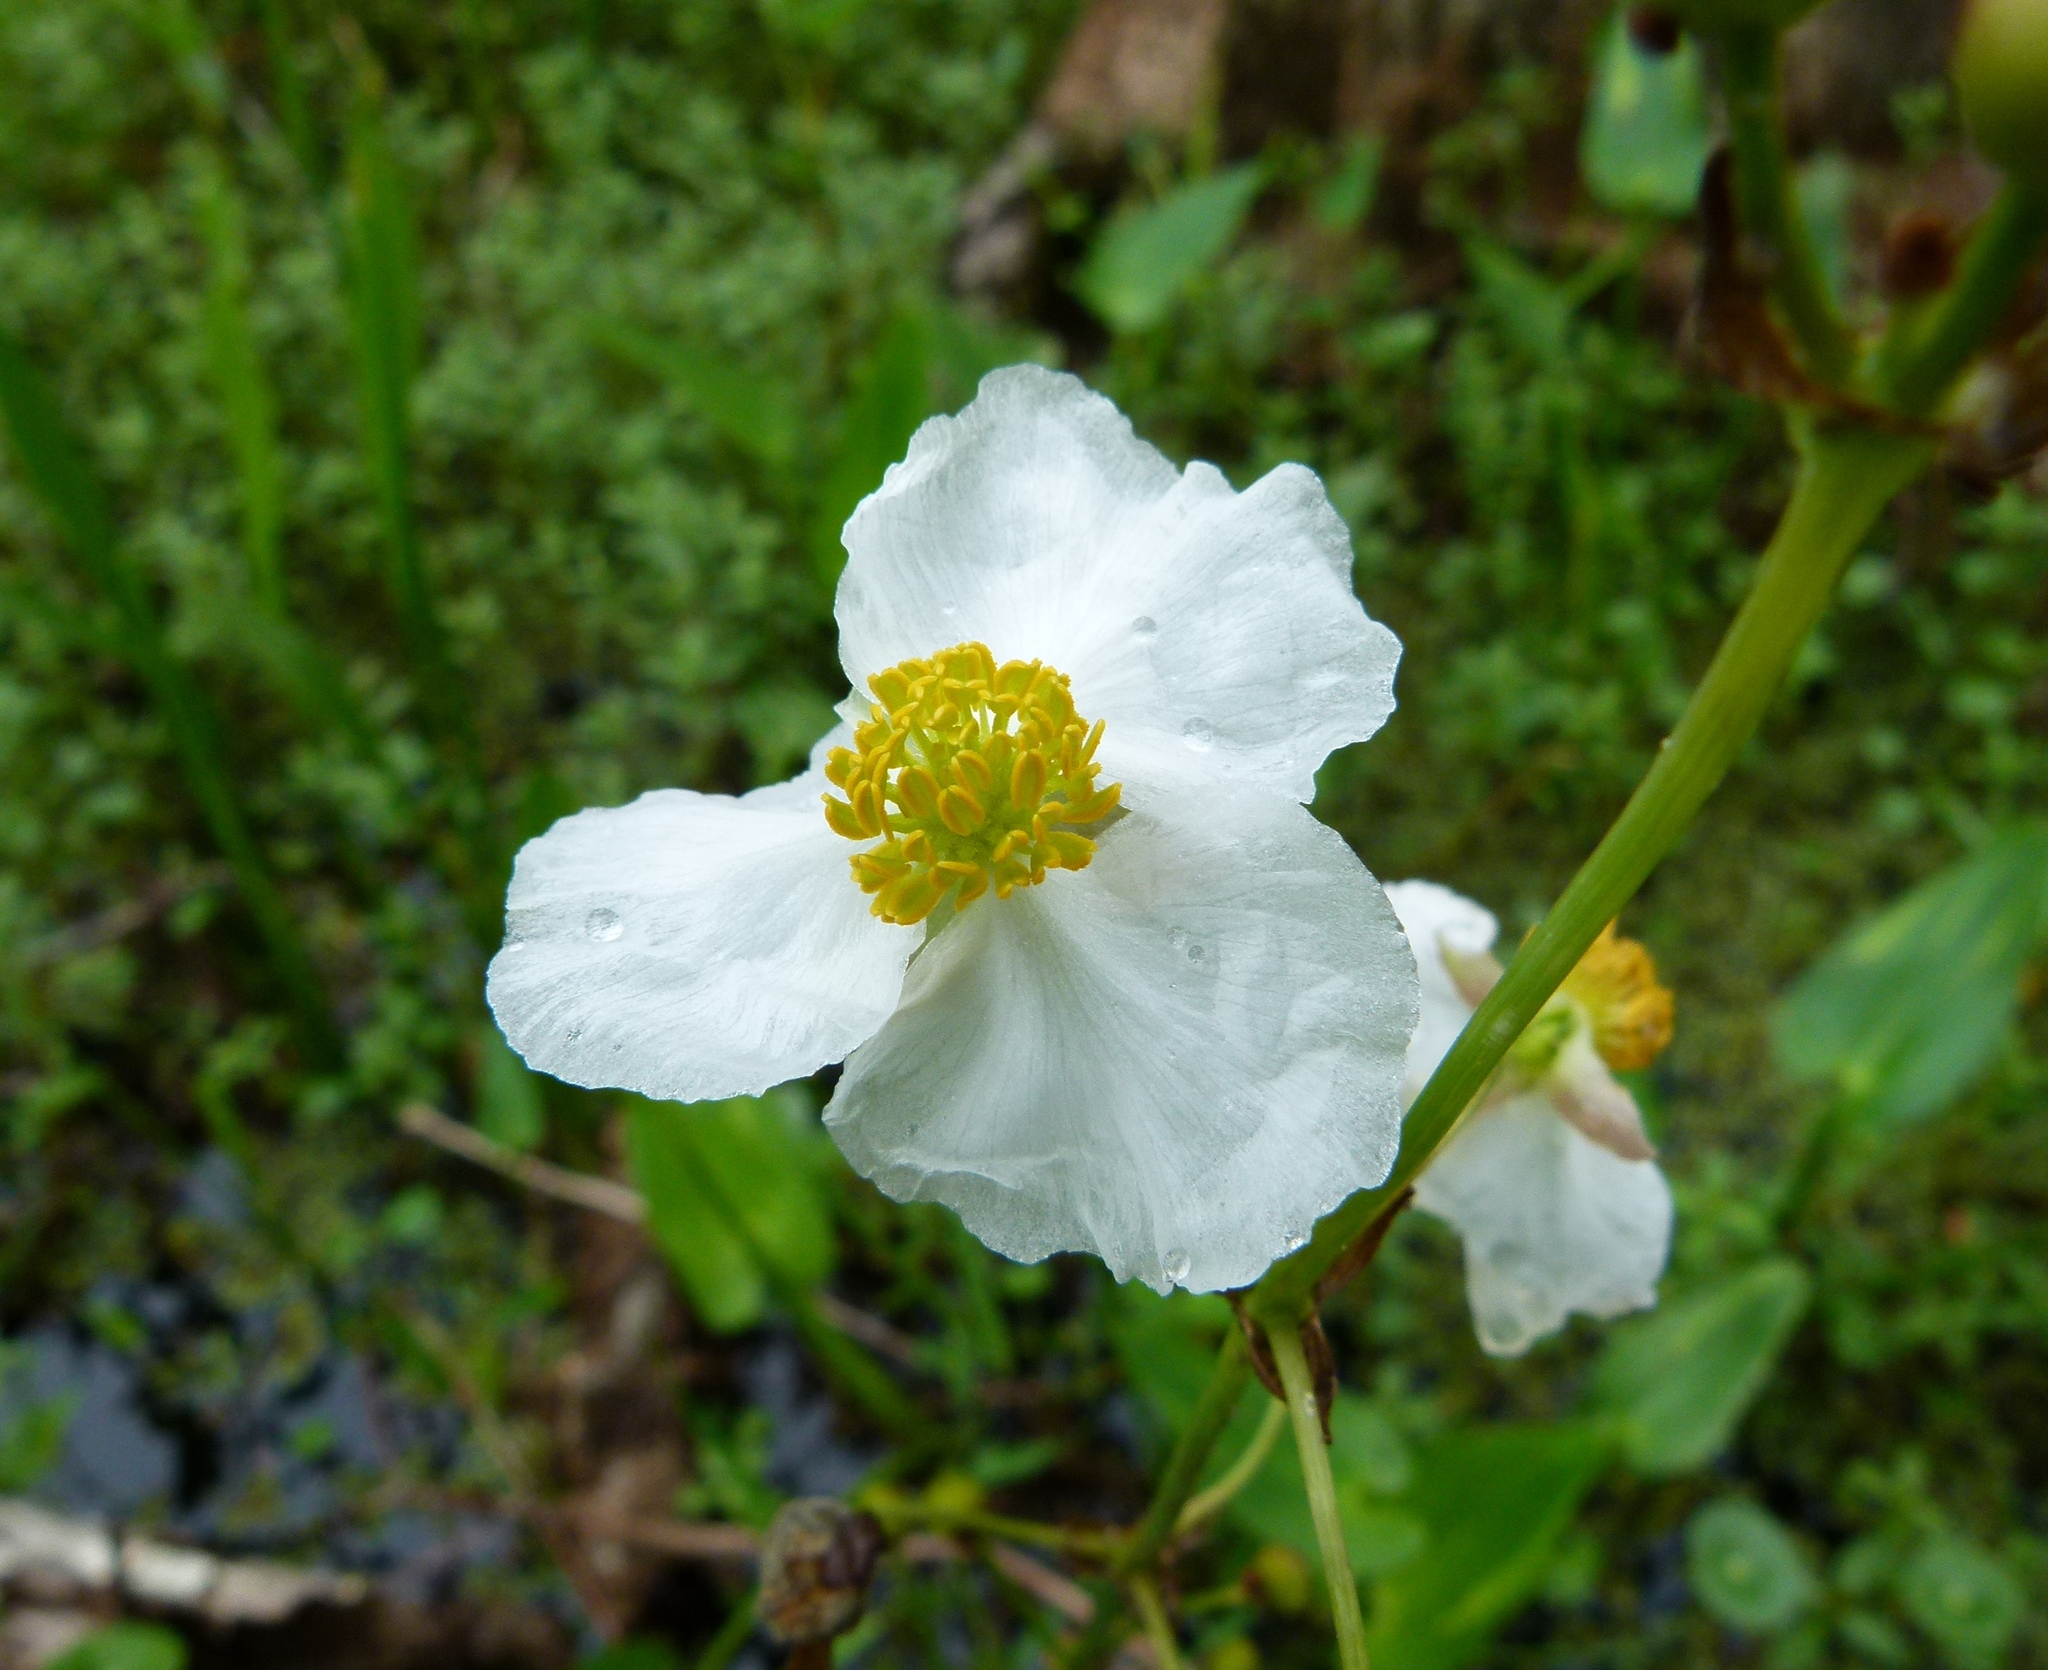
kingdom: Plantae
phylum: Tracheophyta
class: Liliopsida
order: Alismatales
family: Alismataceae
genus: Sagittaria
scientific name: Sagittaria lancifolia
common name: Lance-leaf arrowhead
